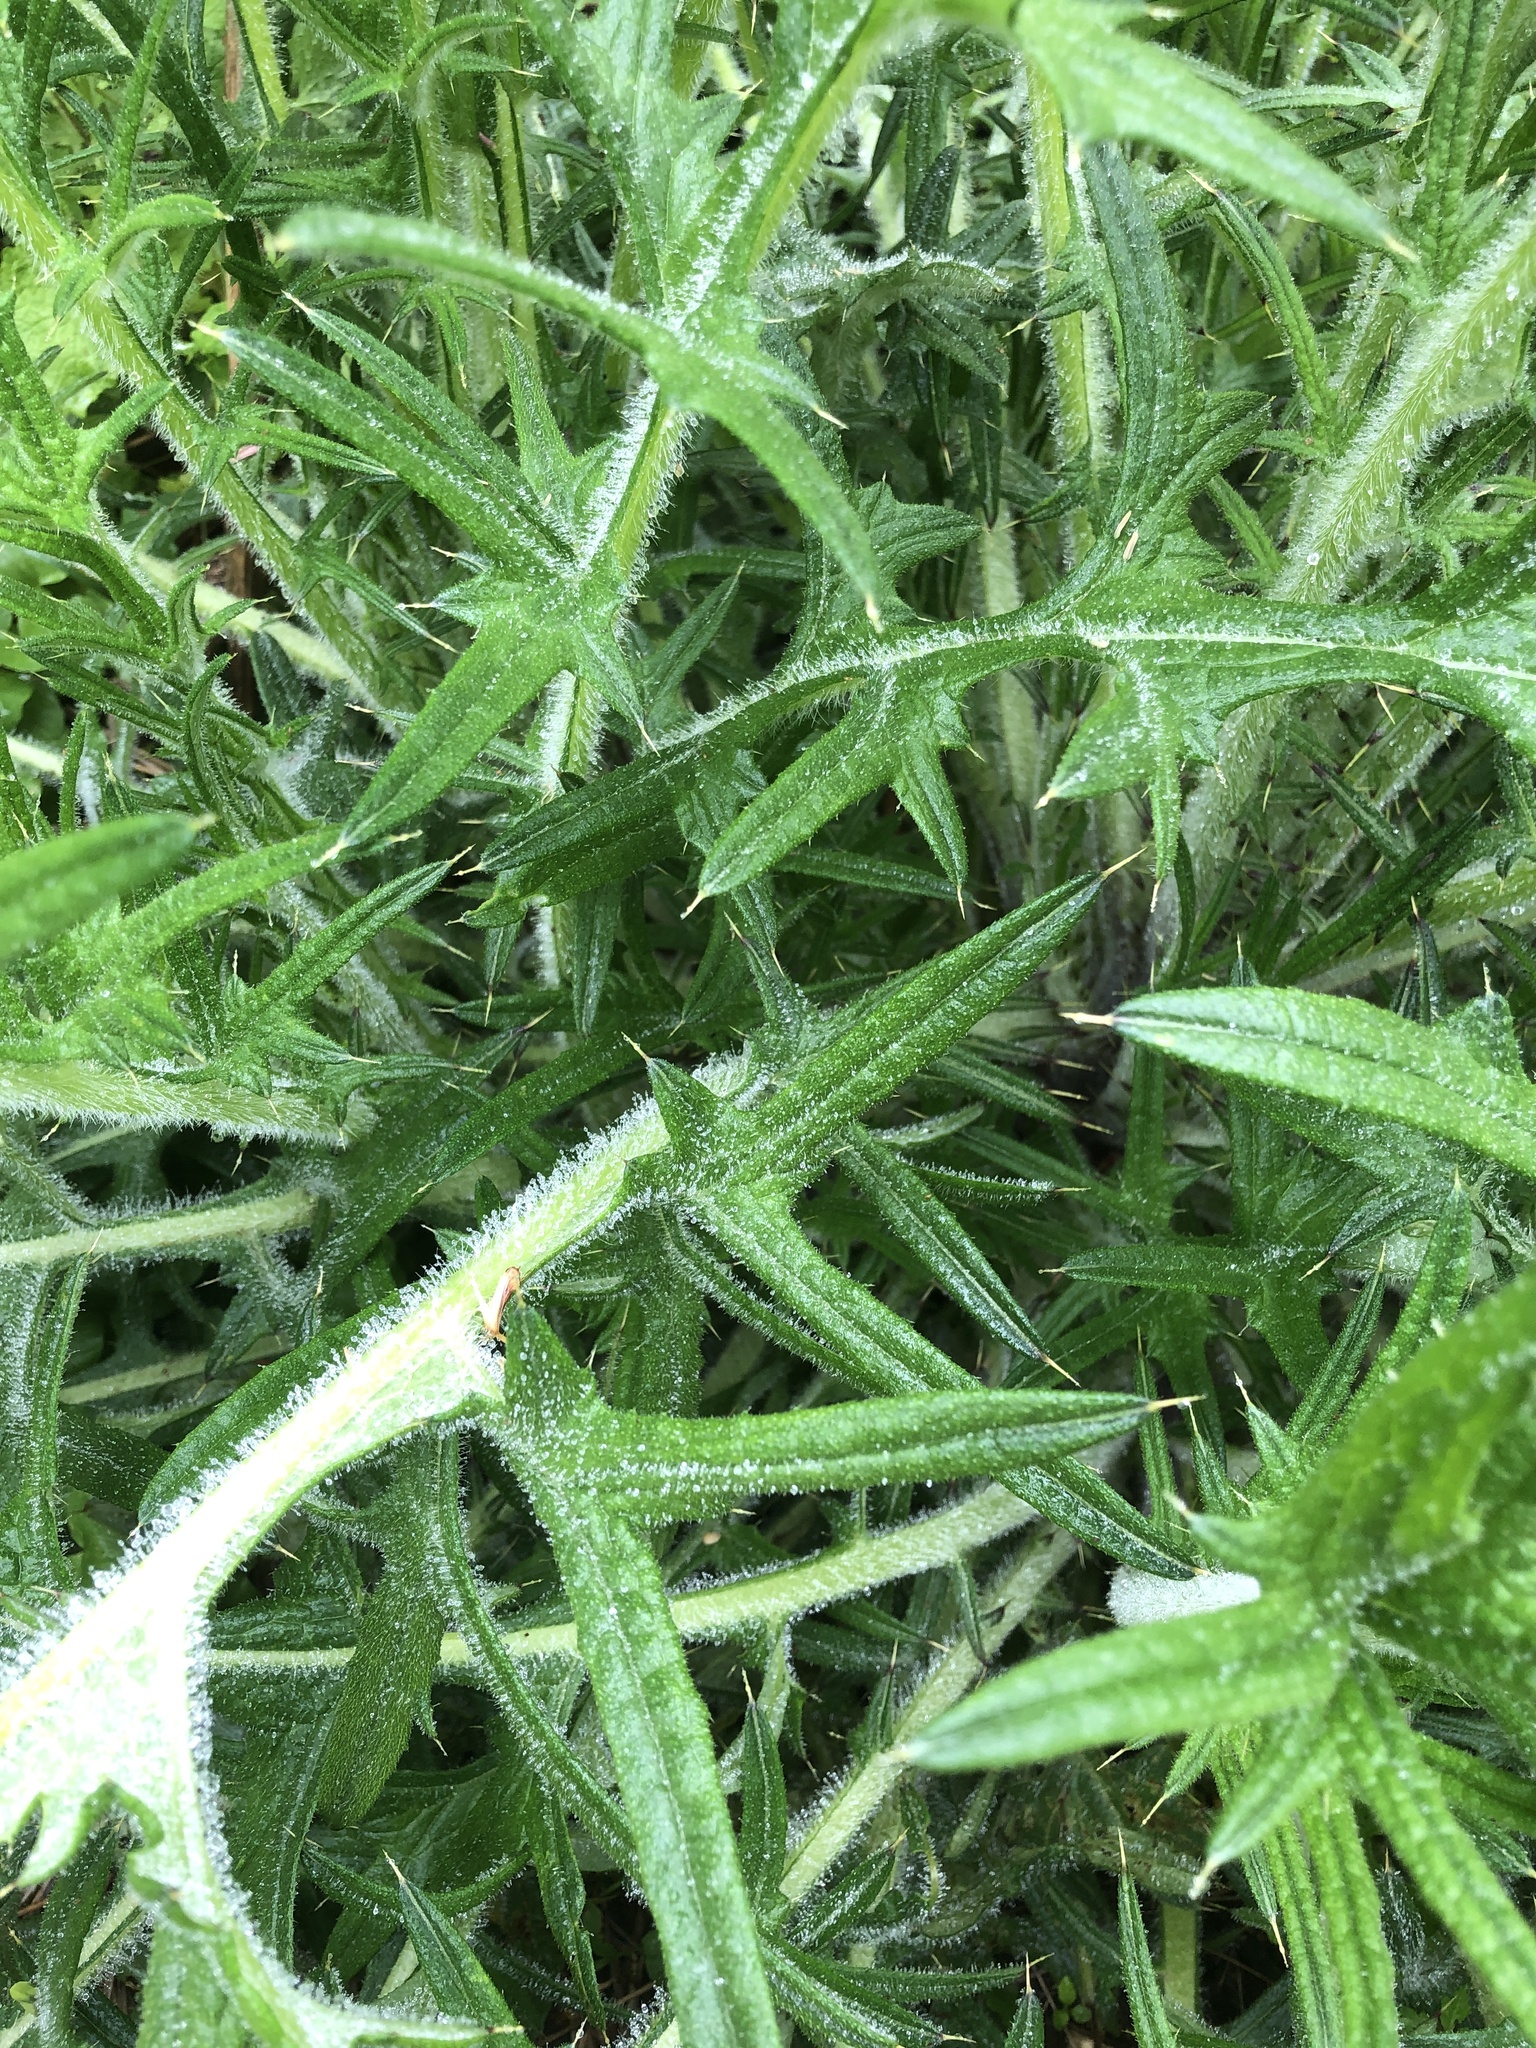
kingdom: Plantae
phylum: Tracheophyta
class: Magnoliopsida
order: Asterales
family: Asteraceae
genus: Cirsium
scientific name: Cirsium vulgare
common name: Bull thistle
